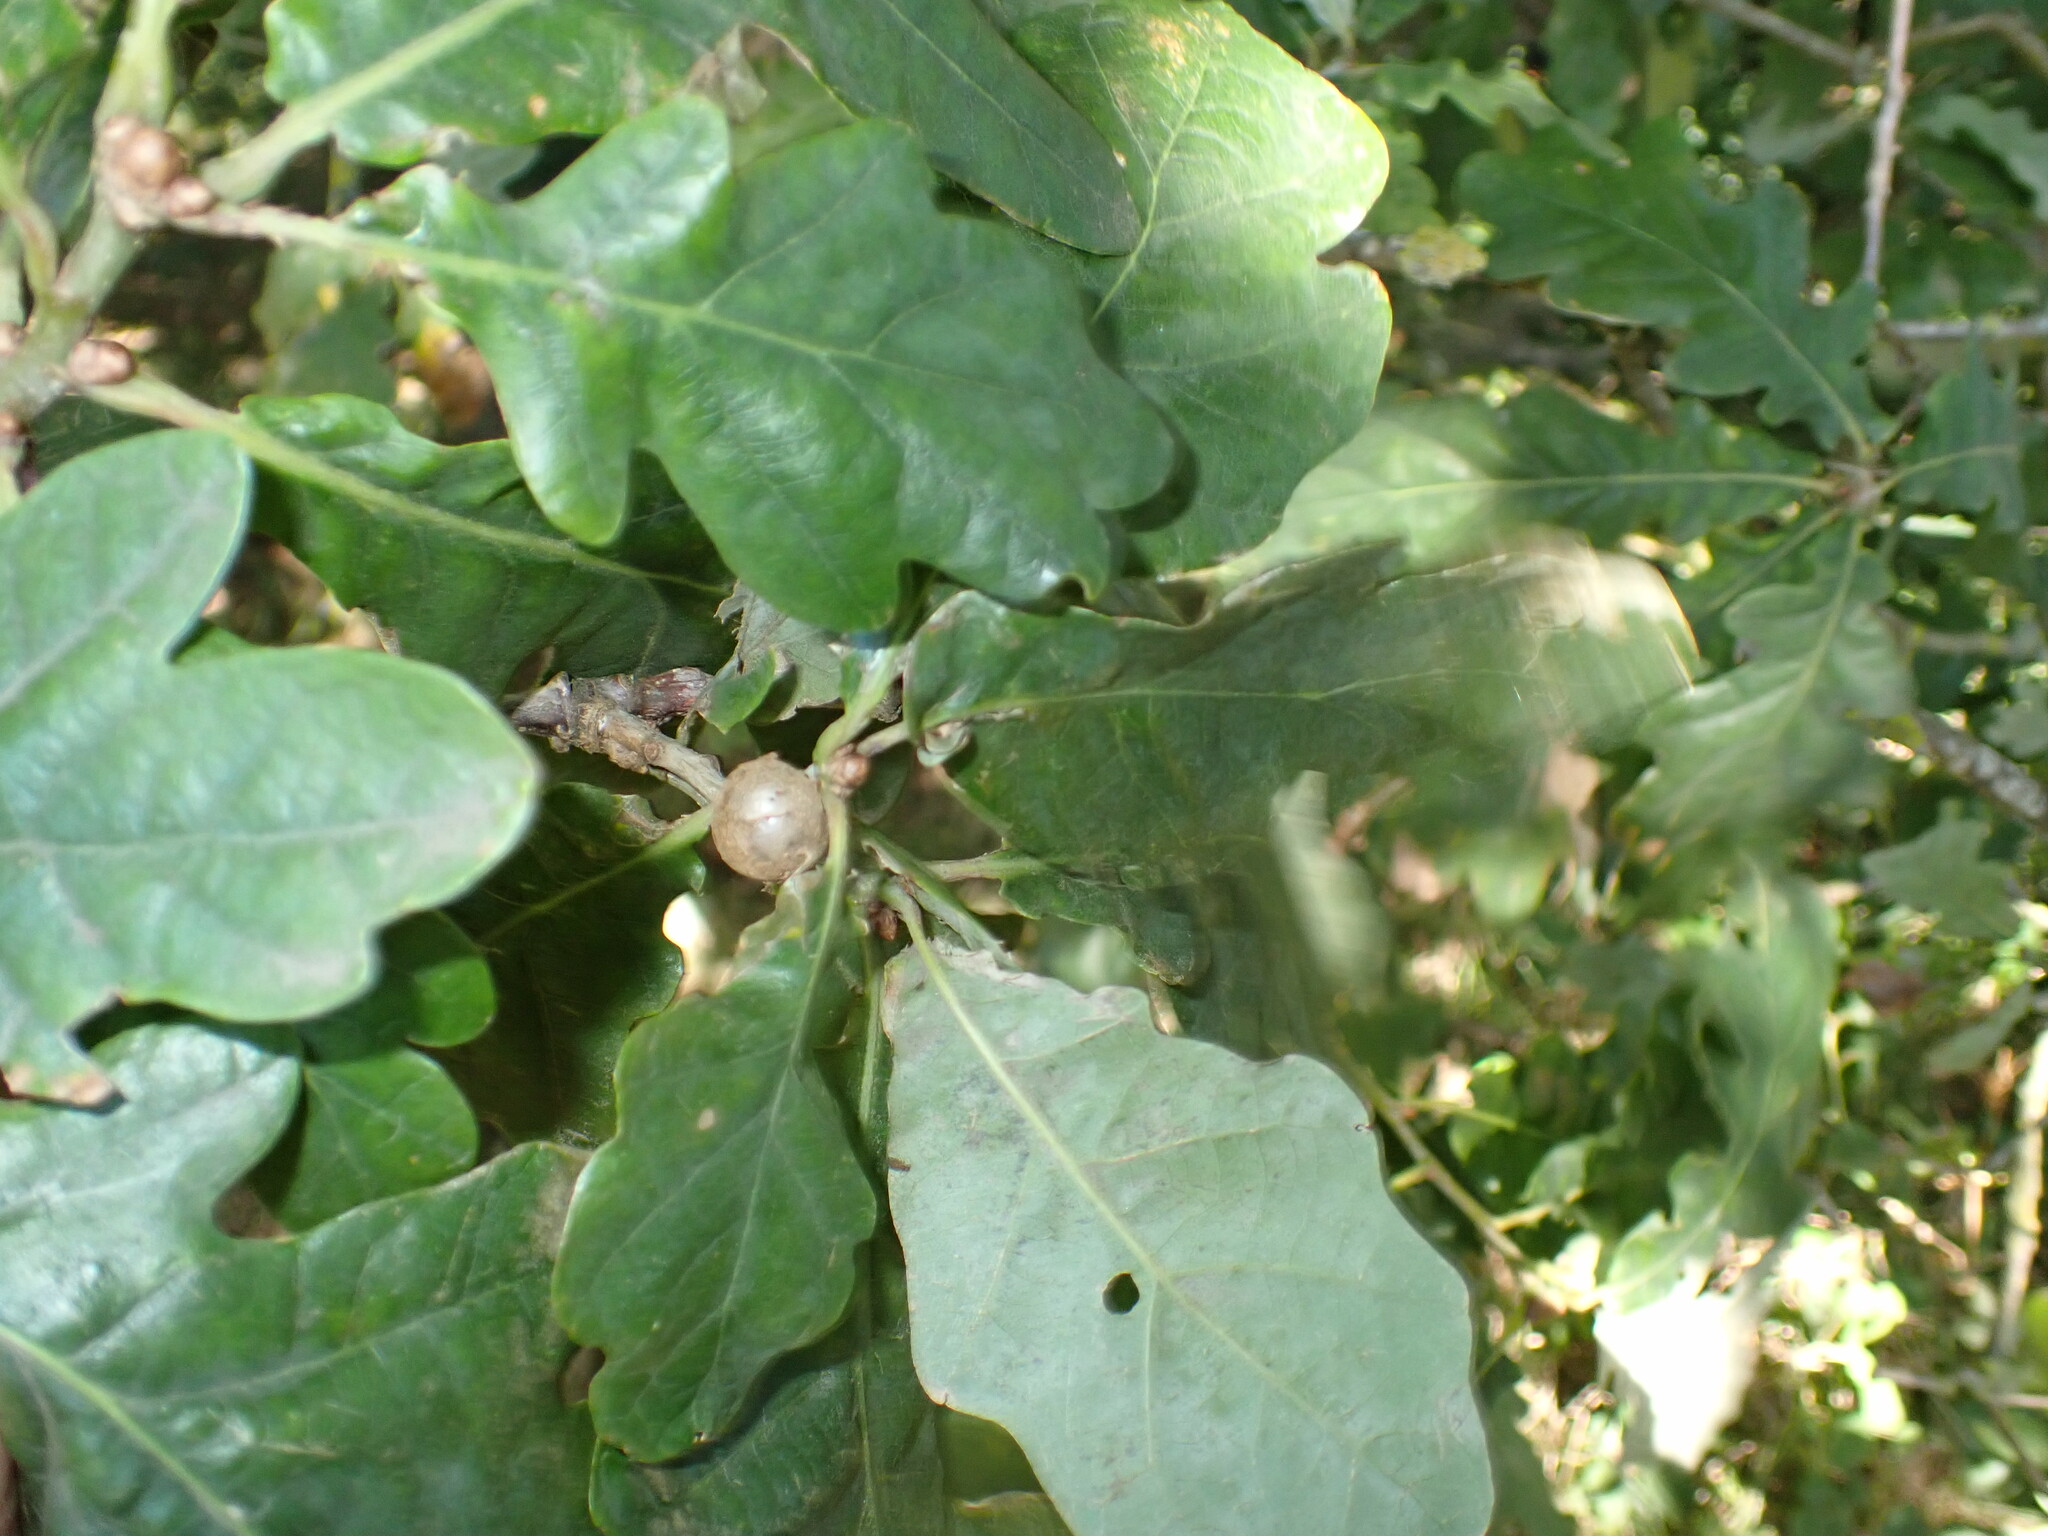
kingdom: Animalia
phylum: Arthropoda
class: Insecta
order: Hymenoptera
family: Cynipidae
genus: Andricus
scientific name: Andricus lignicolus
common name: Cola-nut gall
